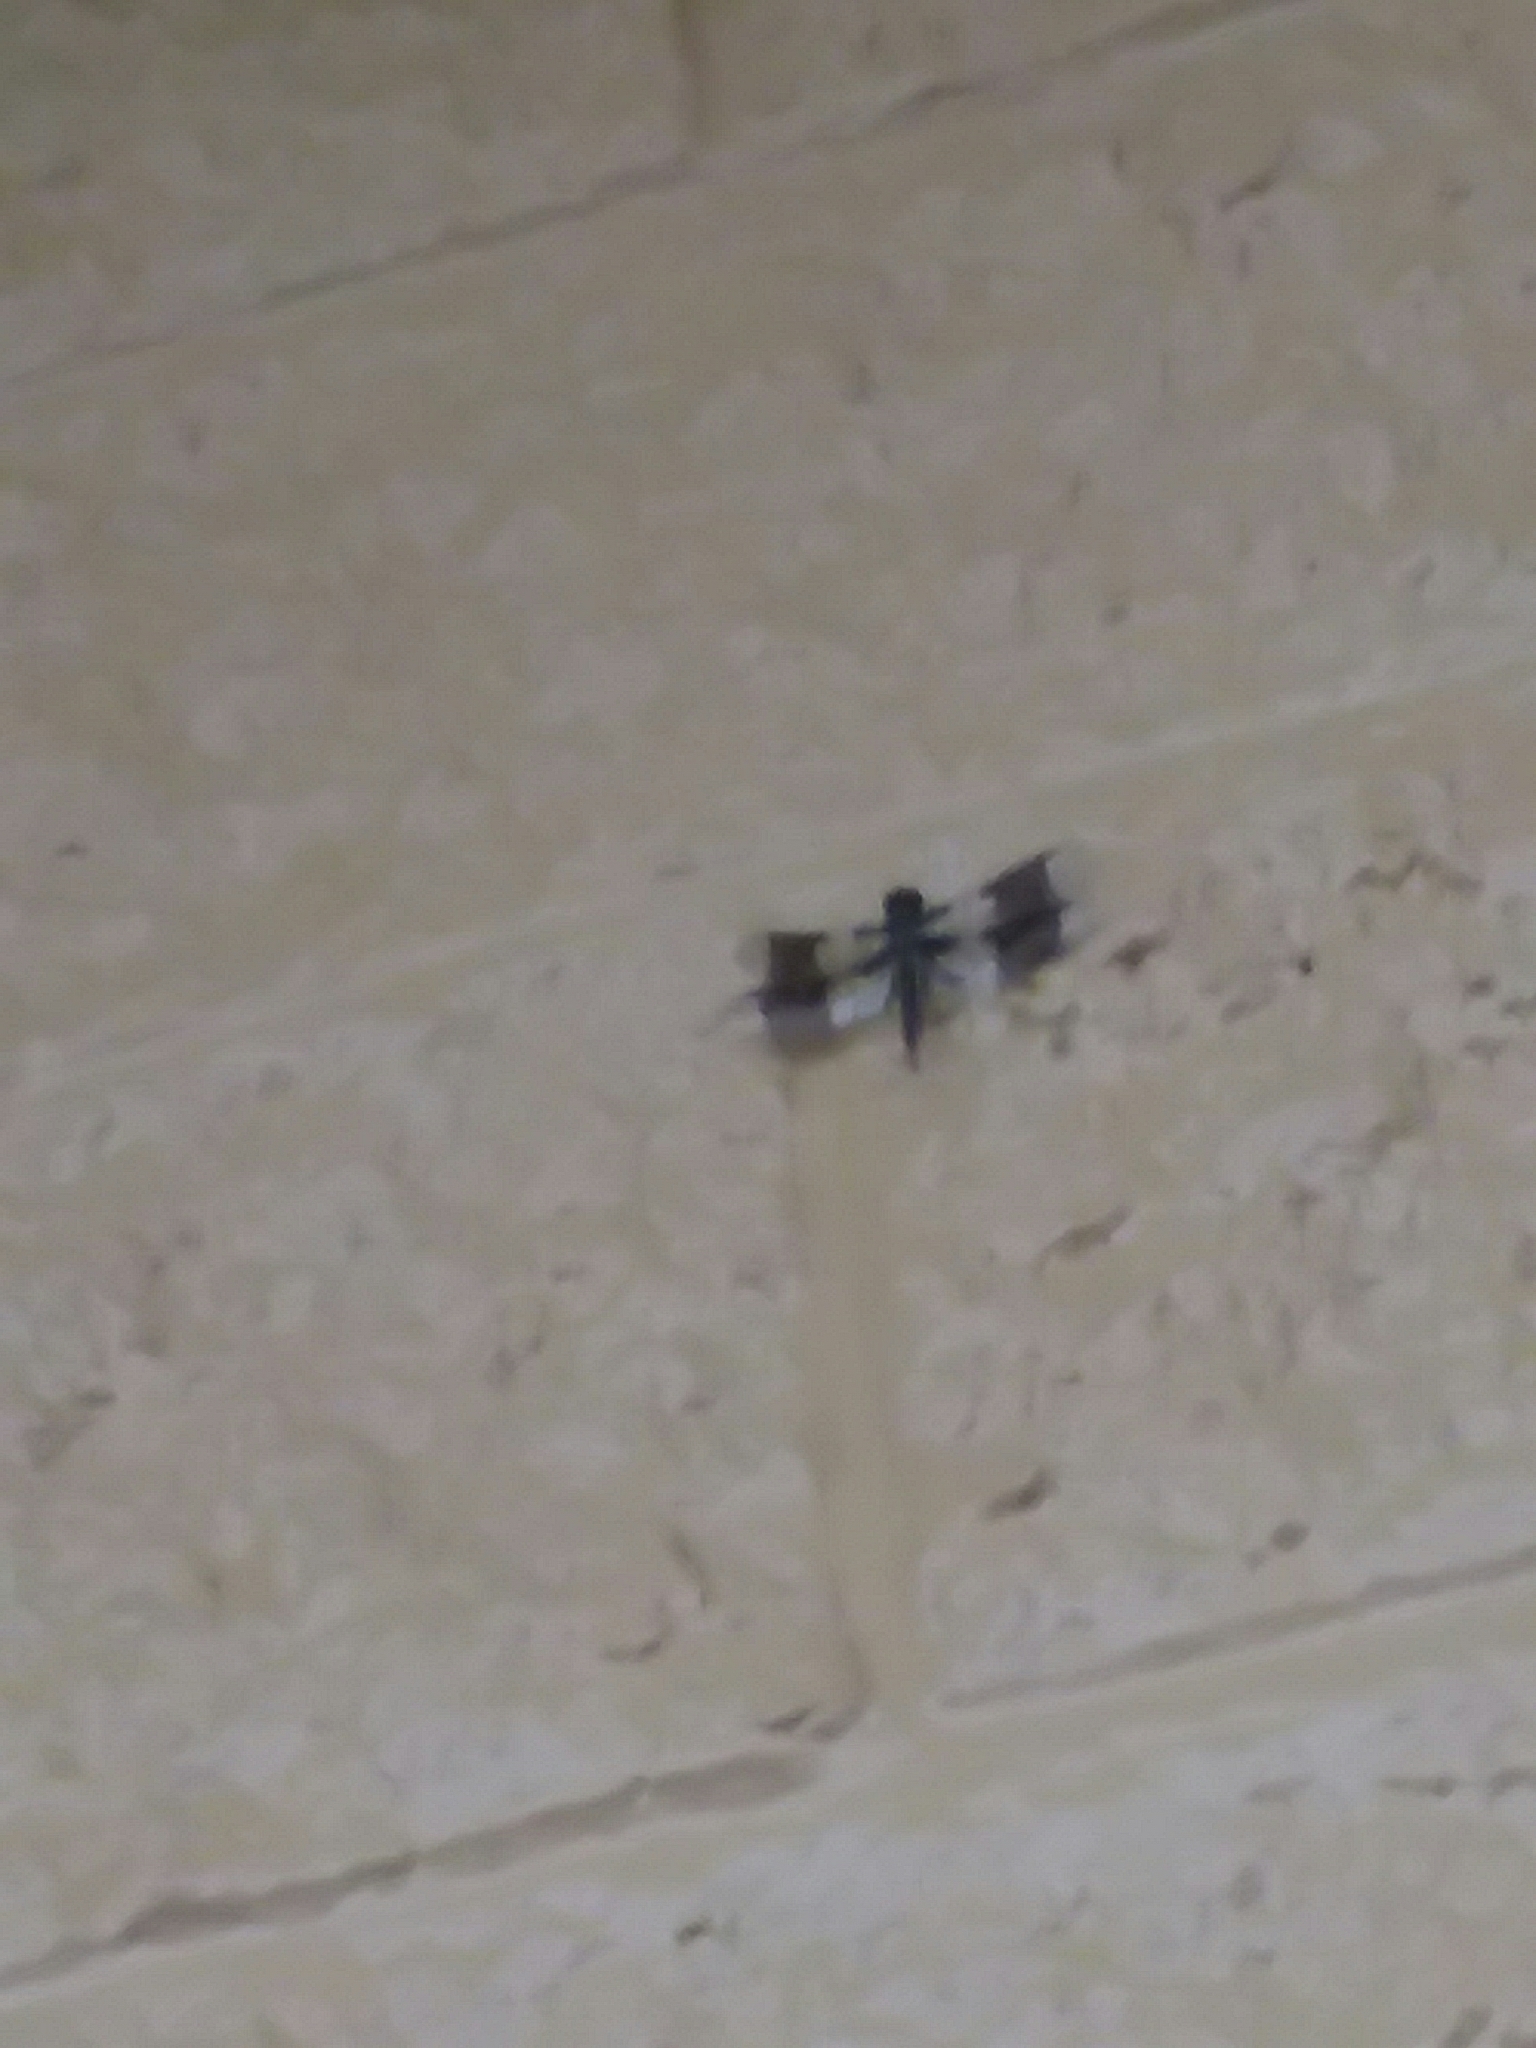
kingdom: Animalia
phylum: Arthropoda
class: Insecta
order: Odonata
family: Libellulidae
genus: Plathemis
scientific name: Plathemis lydia
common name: Common whitetail
